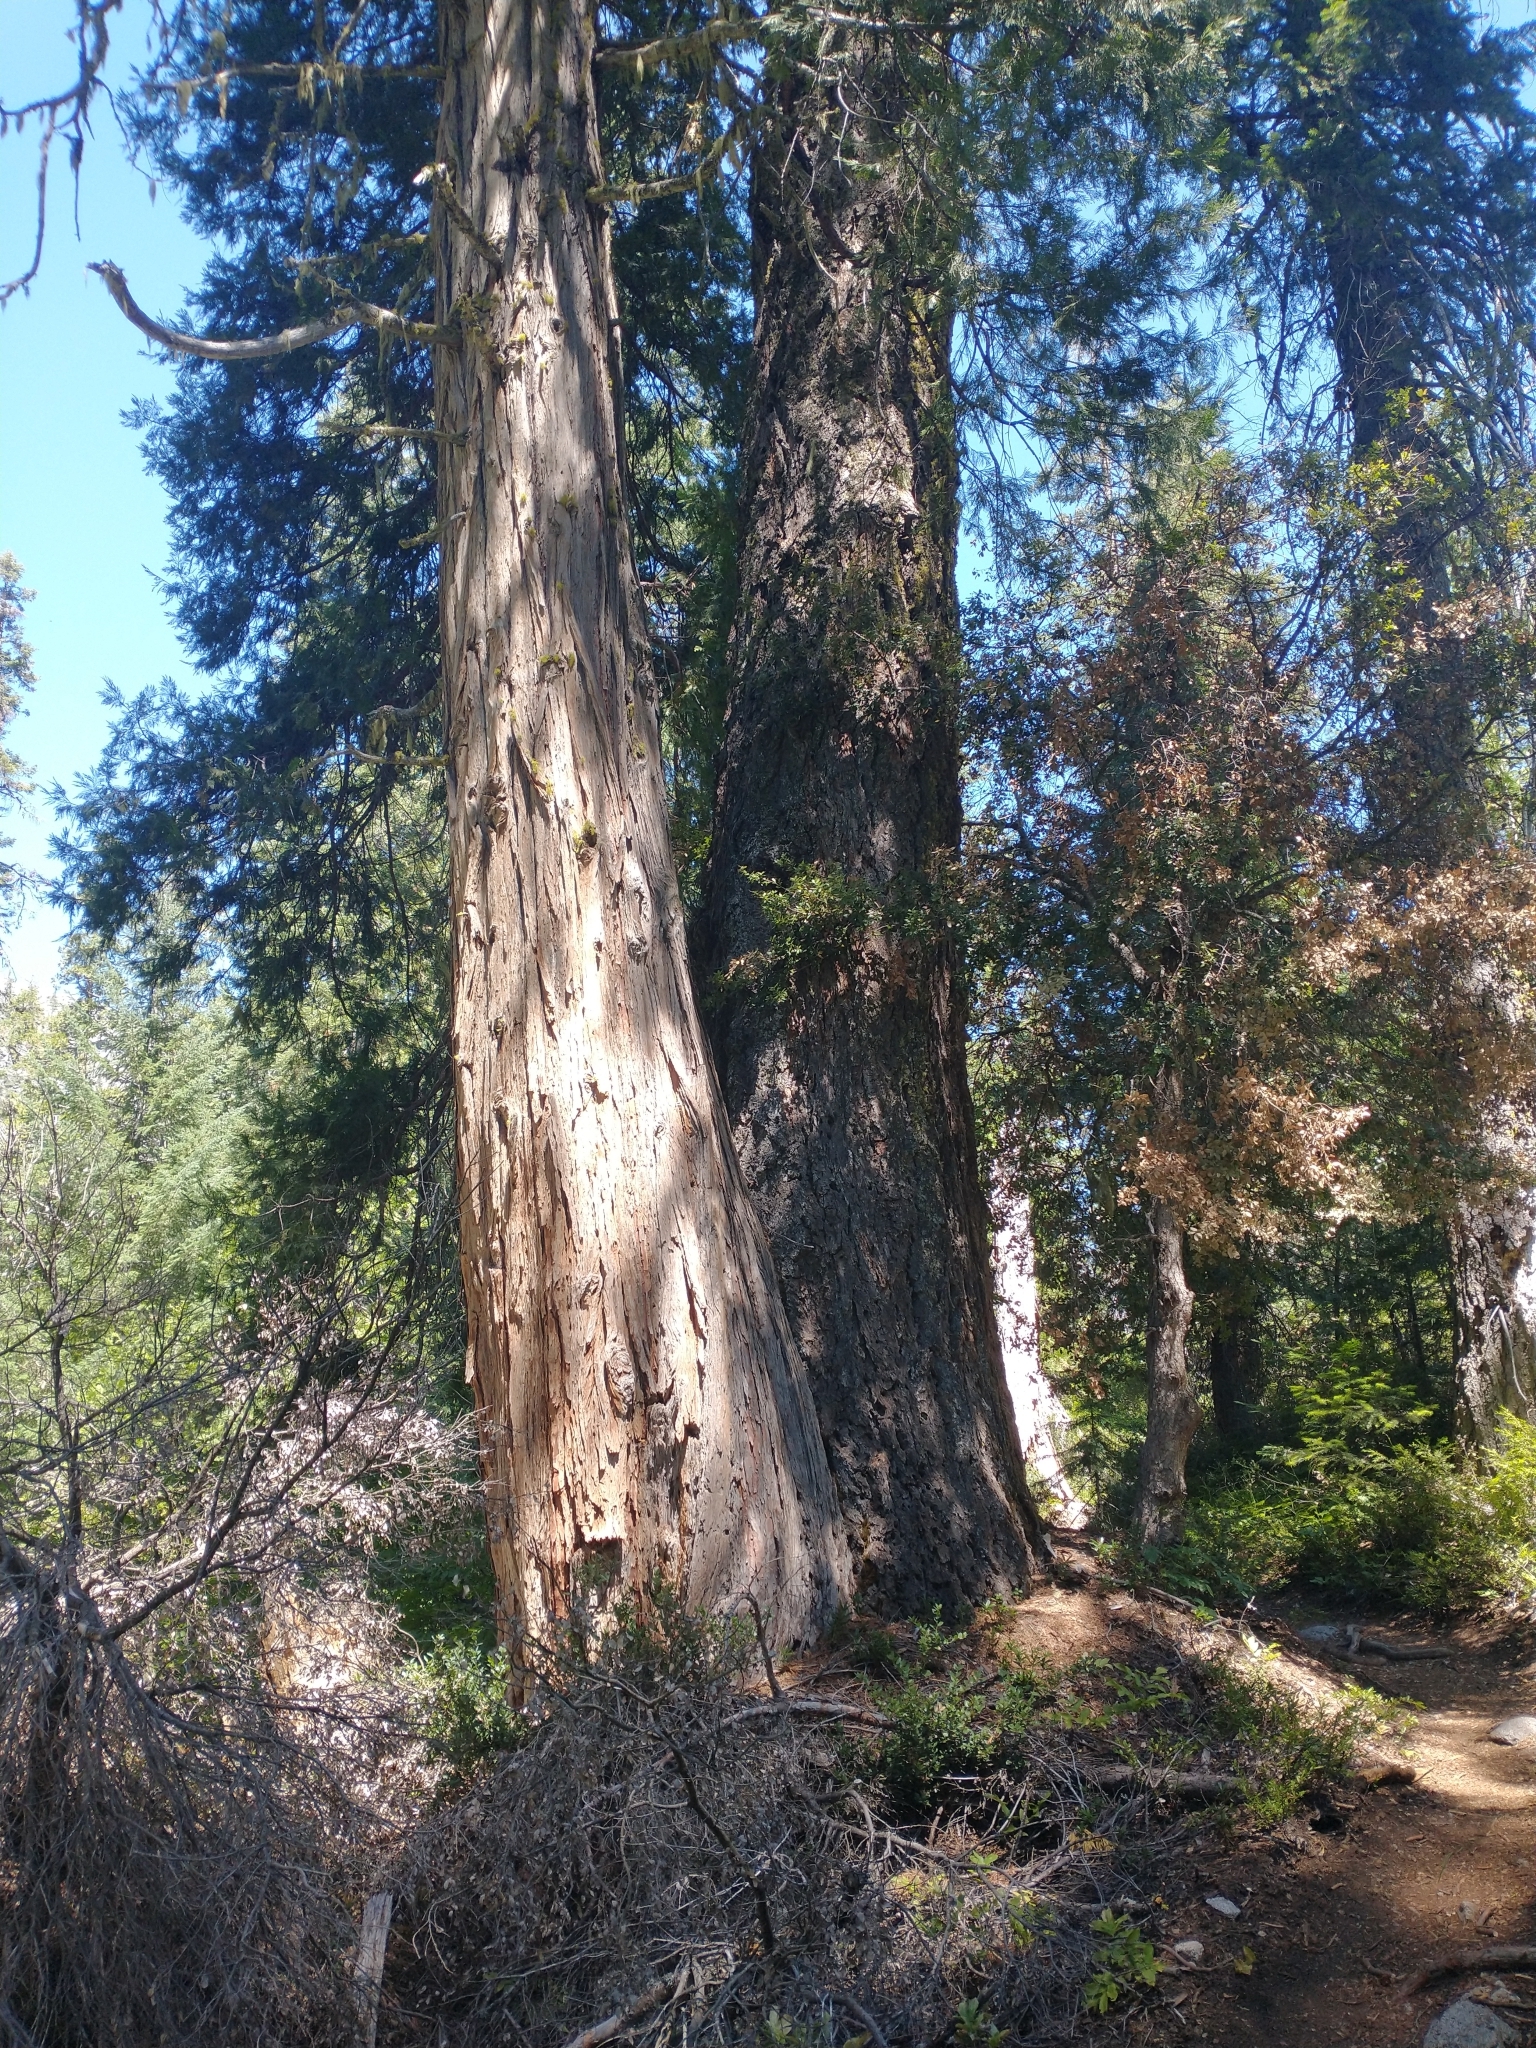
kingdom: Plantae
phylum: Tracheophyta
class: Pinopsida
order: Pinales
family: Cupressaceae
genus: Calocedrus
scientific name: Calocedrus decurrens
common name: Californian incense-cedar
